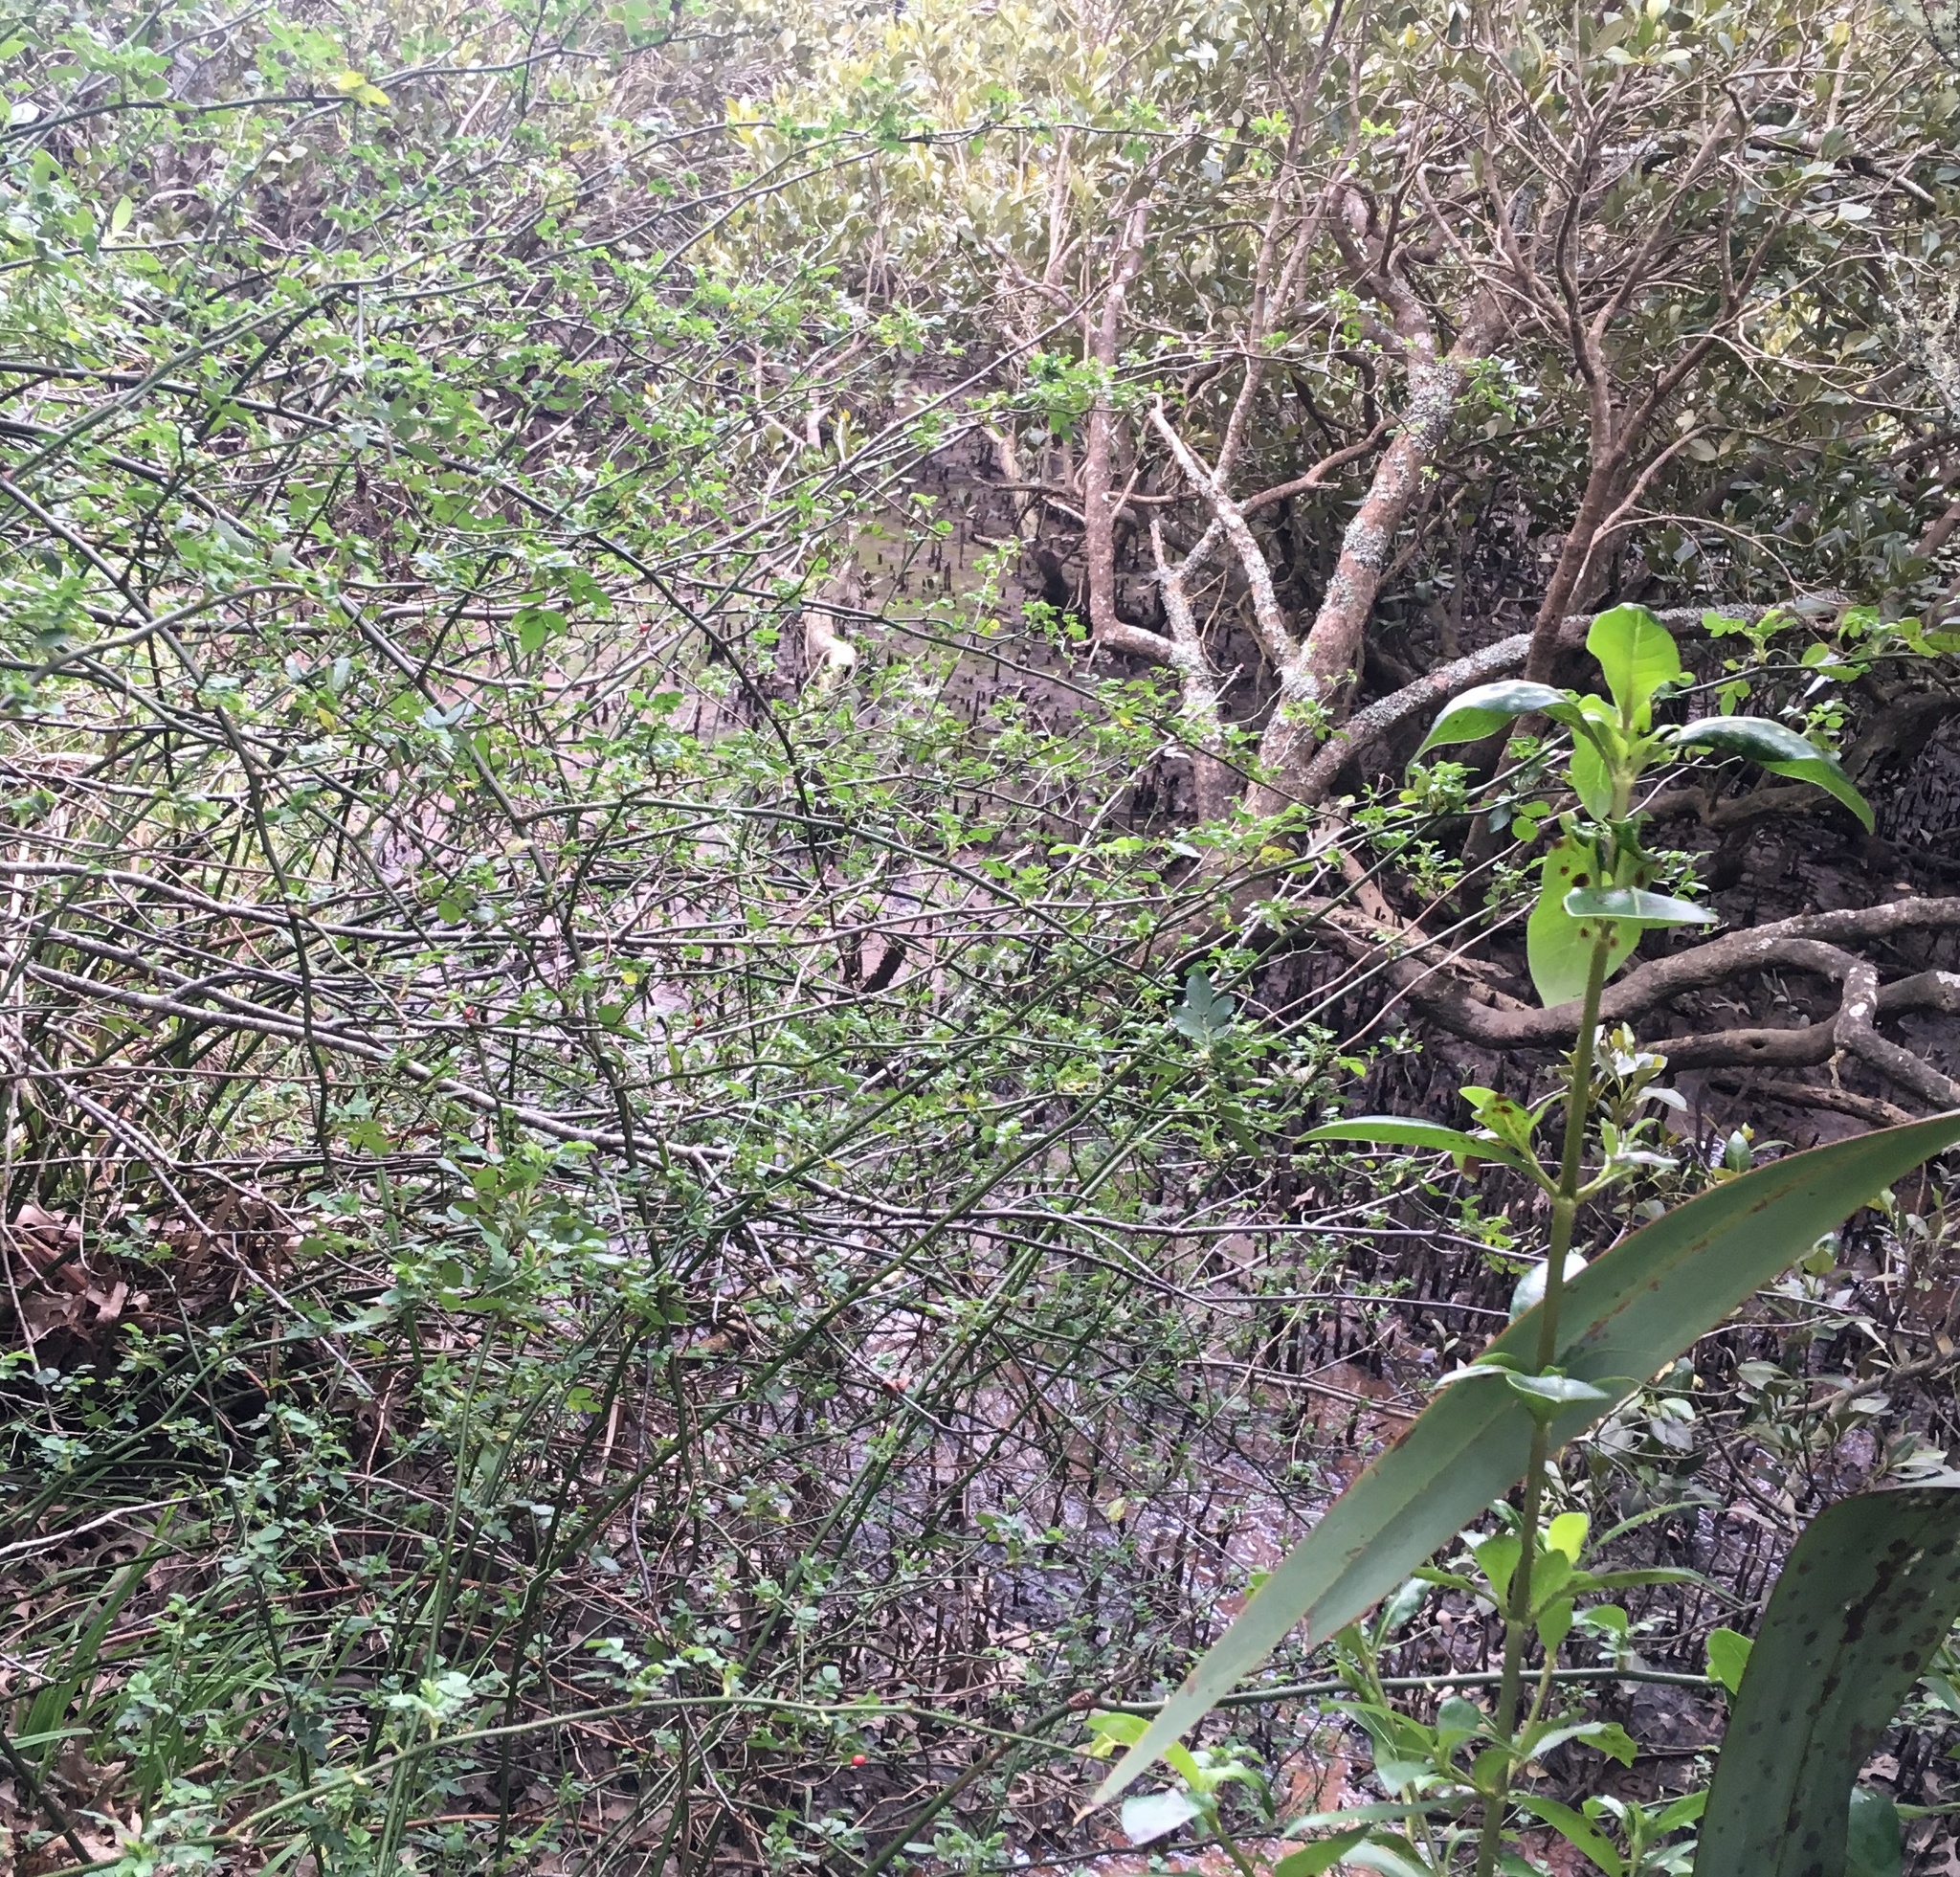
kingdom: Plantae
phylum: Tracheophyta
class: Magnoliopsida
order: Lamiales
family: Acanthaceae
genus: Avicennia
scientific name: Avicennia marina
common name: Gray mangrove
